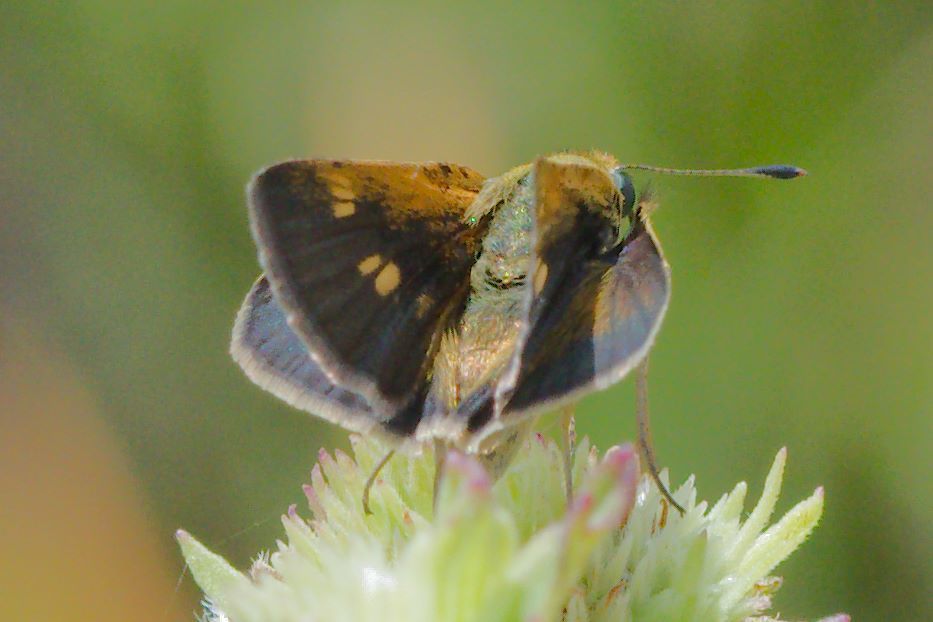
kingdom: Animalia
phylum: Arthropoda
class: Insecta
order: Lepidoptera
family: Hesperiidae
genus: Polites
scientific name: Polites themistocles
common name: Tawny-edged skipper
